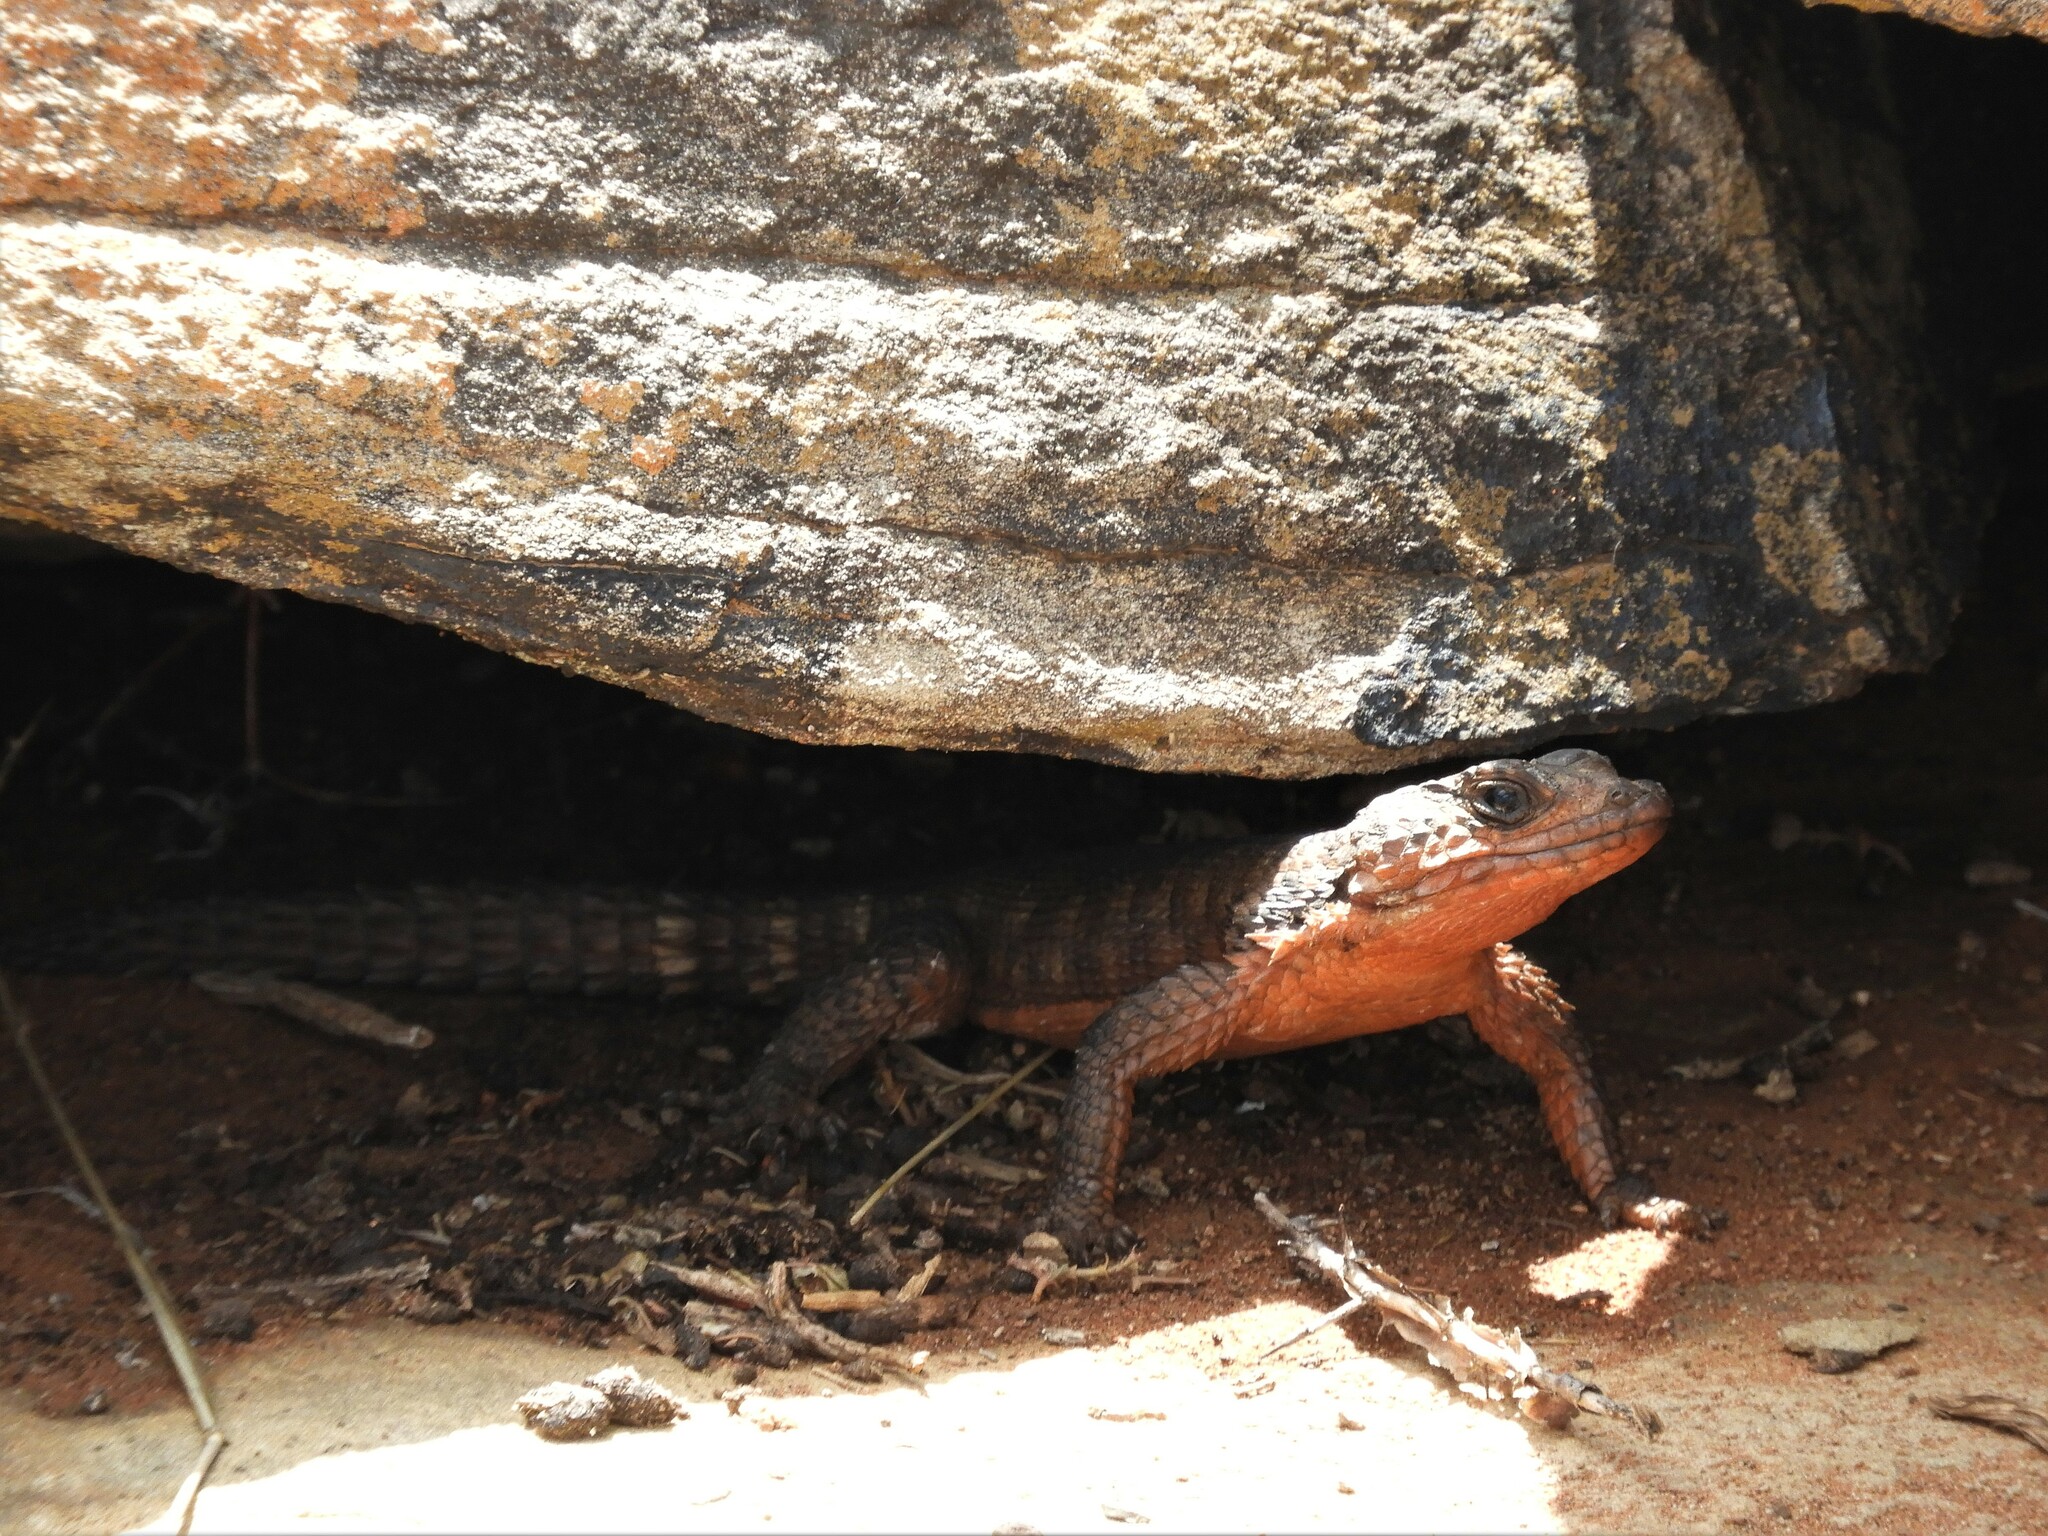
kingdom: Animalia
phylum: Chordata
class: Squamata
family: Cordylidae
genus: Karusasaurus
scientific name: Karusasaurus polyzonus
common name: Karoo girdled lizard
